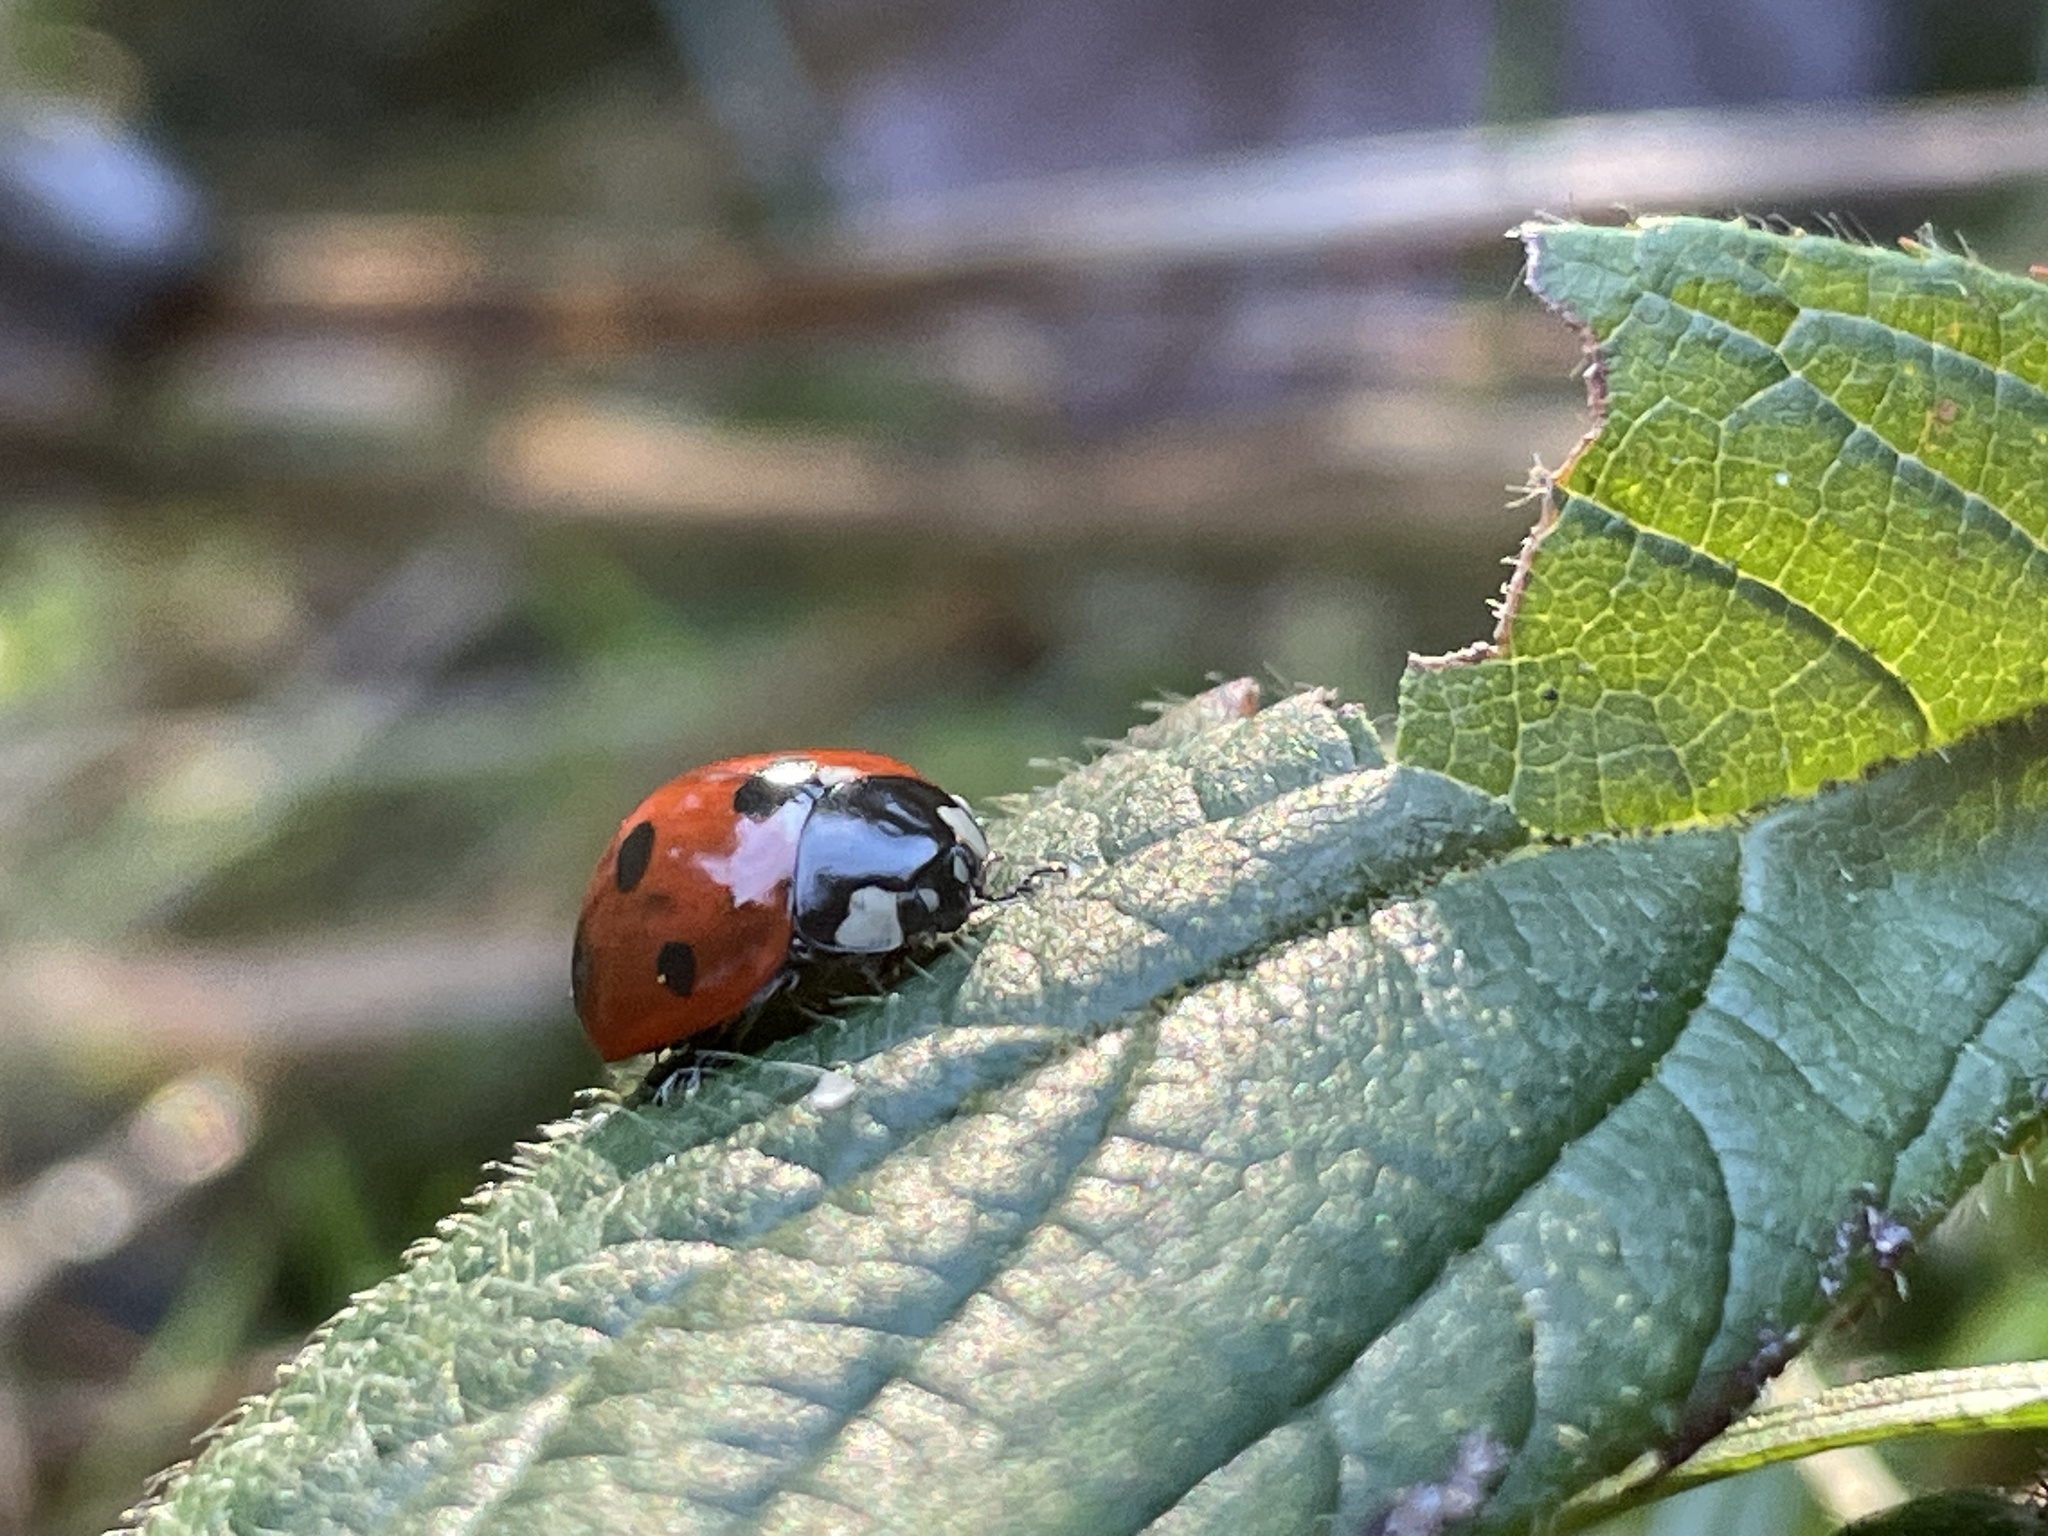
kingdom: Animalia
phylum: Arthropoda
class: Insecta
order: Coleoptera
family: Coccinellidae
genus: Coccinella
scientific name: Coccinella septempunctata
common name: Sevenspotted lady beetle
